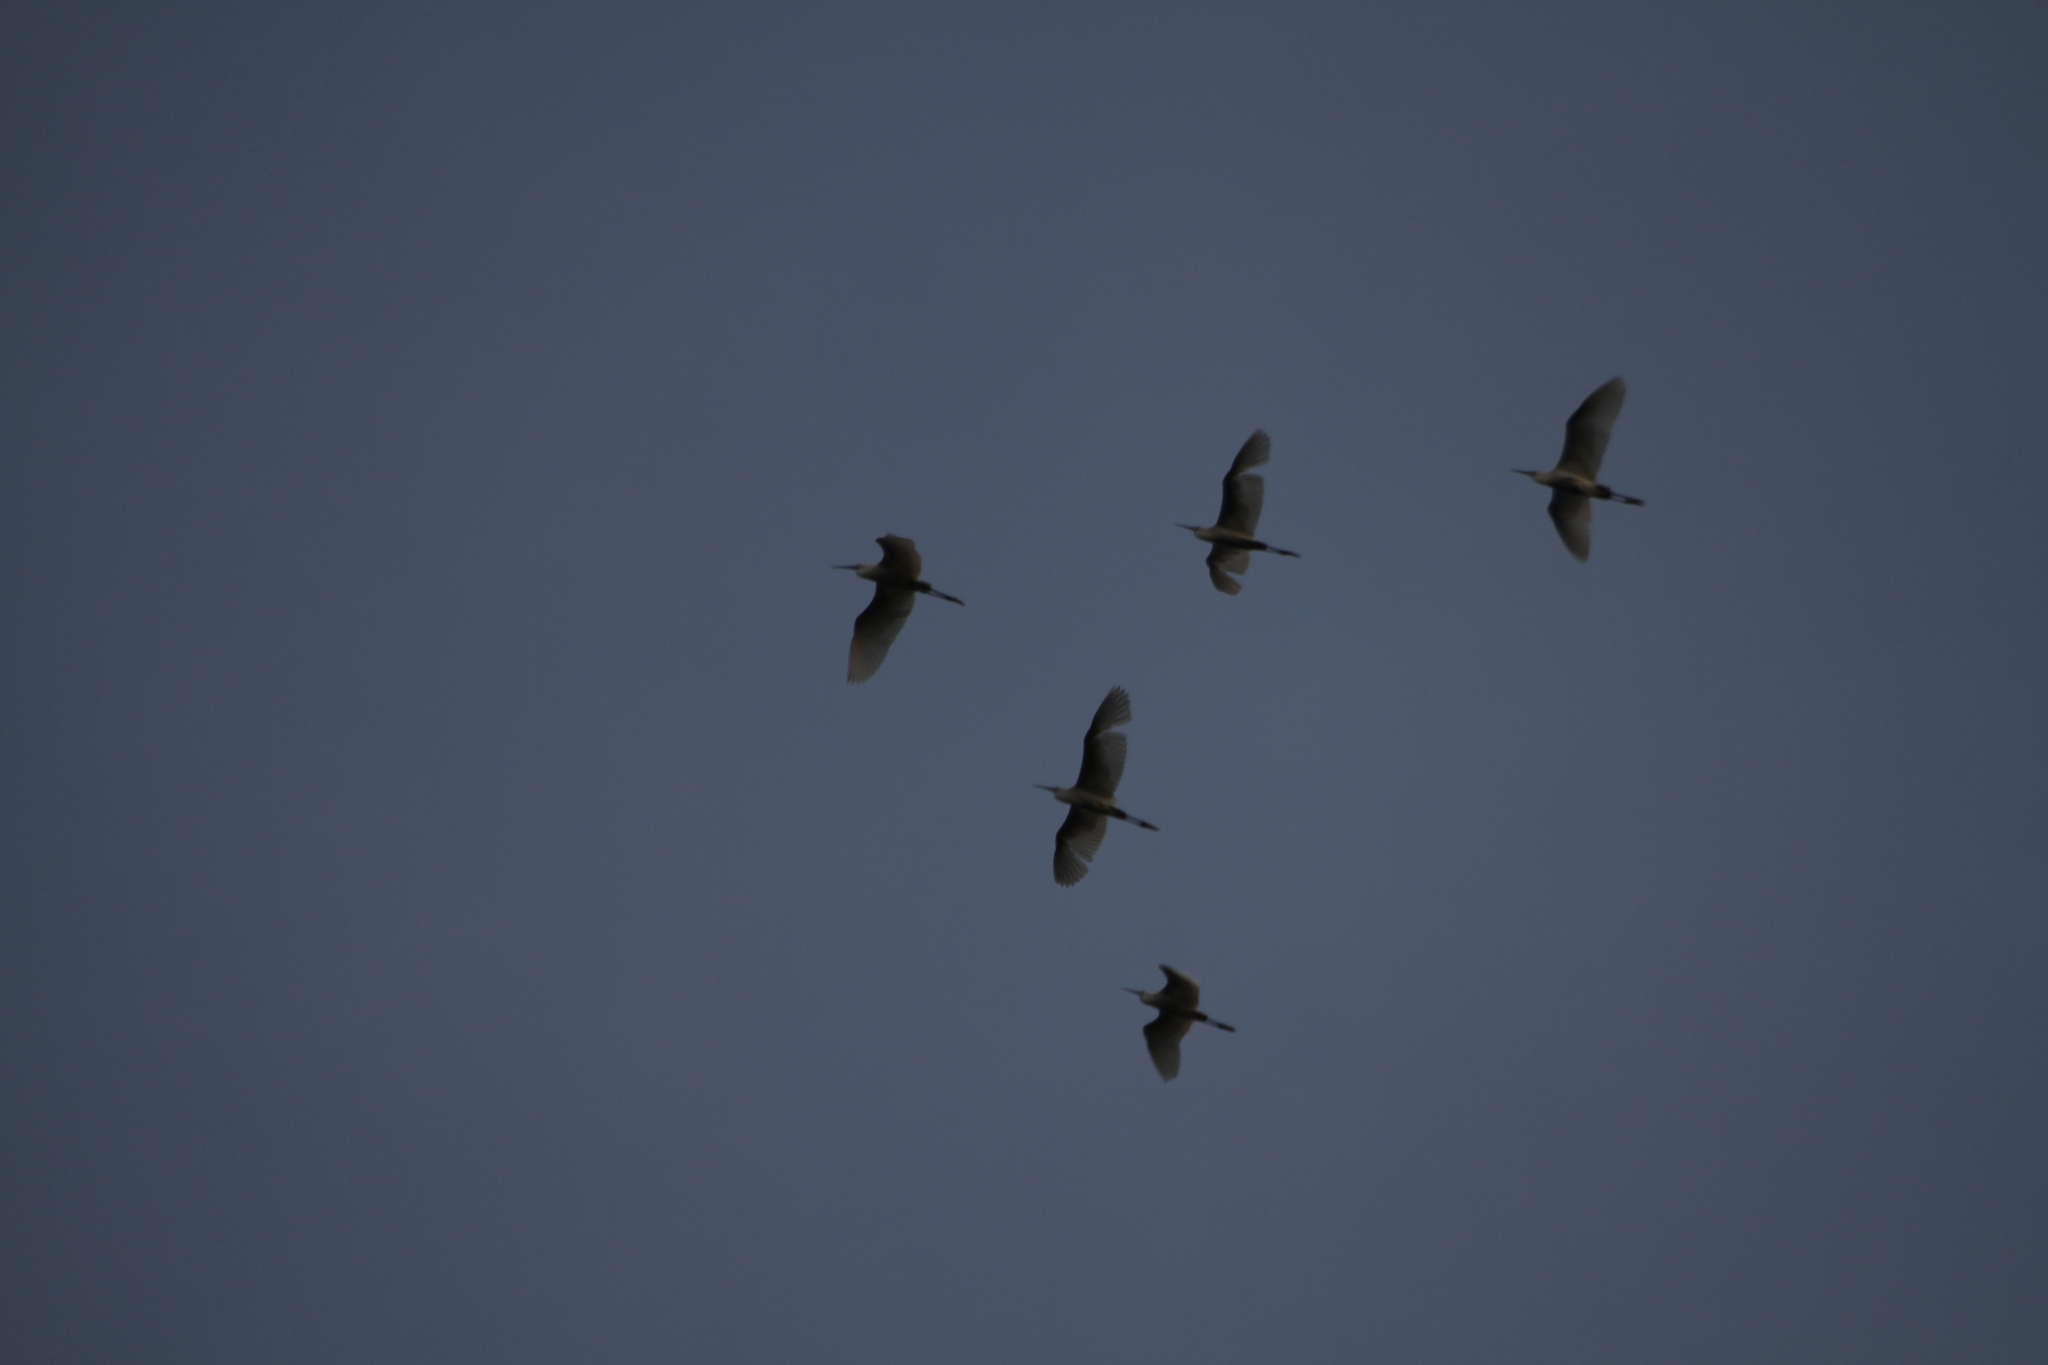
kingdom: Animalia
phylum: Chordata
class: Aves
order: Pelecaniformes
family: Ardeidae
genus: Egretta
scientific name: Egretta garzetta
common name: Little egret
